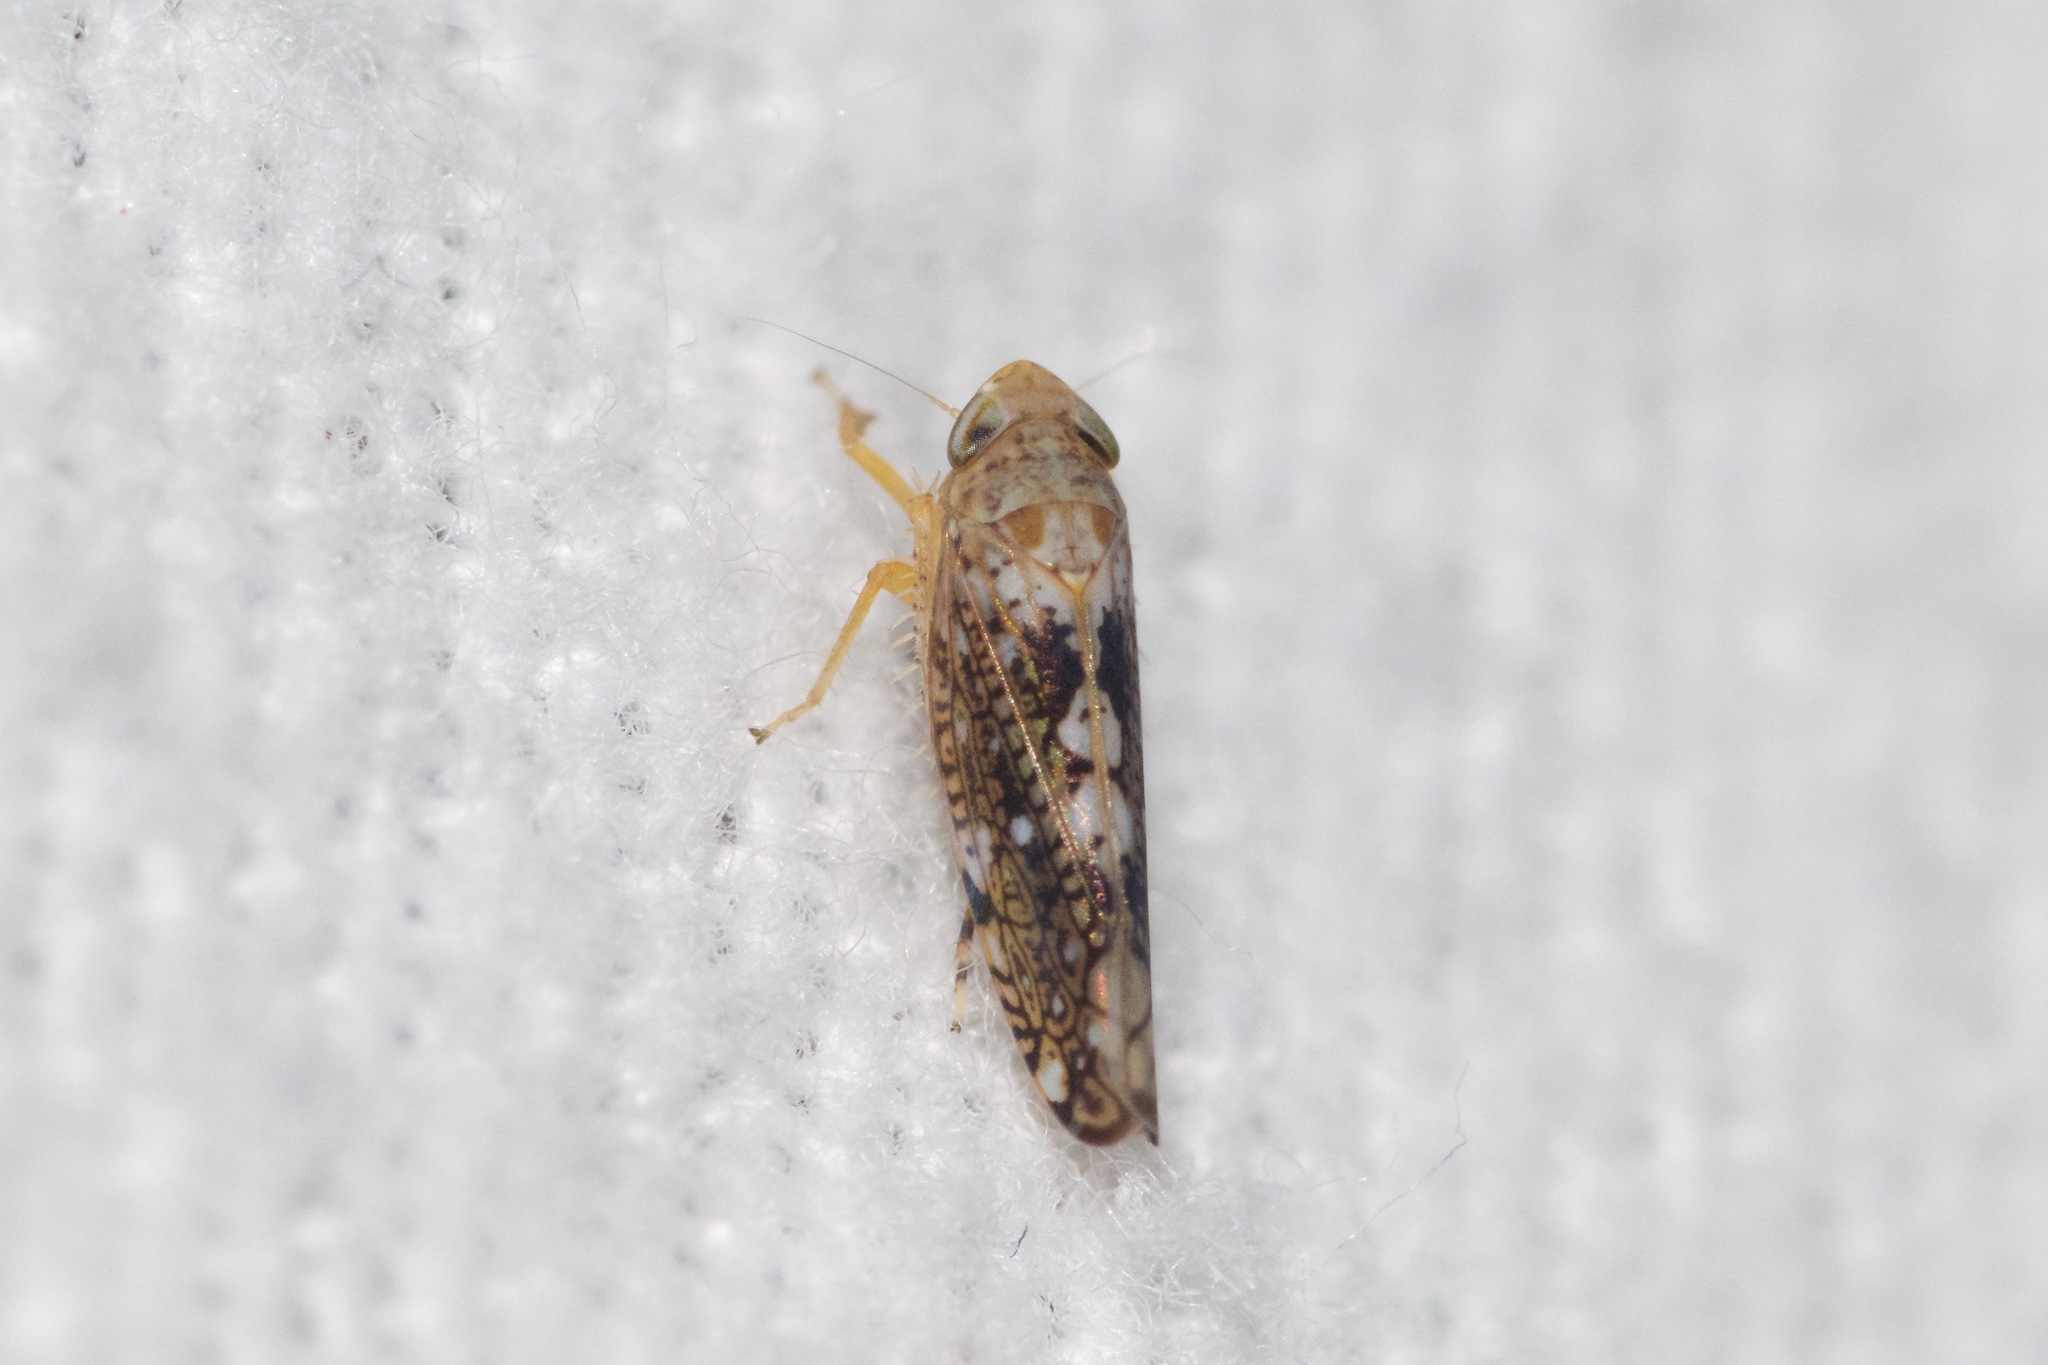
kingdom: Animalia
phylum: Arthropoda
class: Insecta
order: Hemiptera
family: Cicadellidae
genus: Prescottia
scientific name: Prescottia lobata
